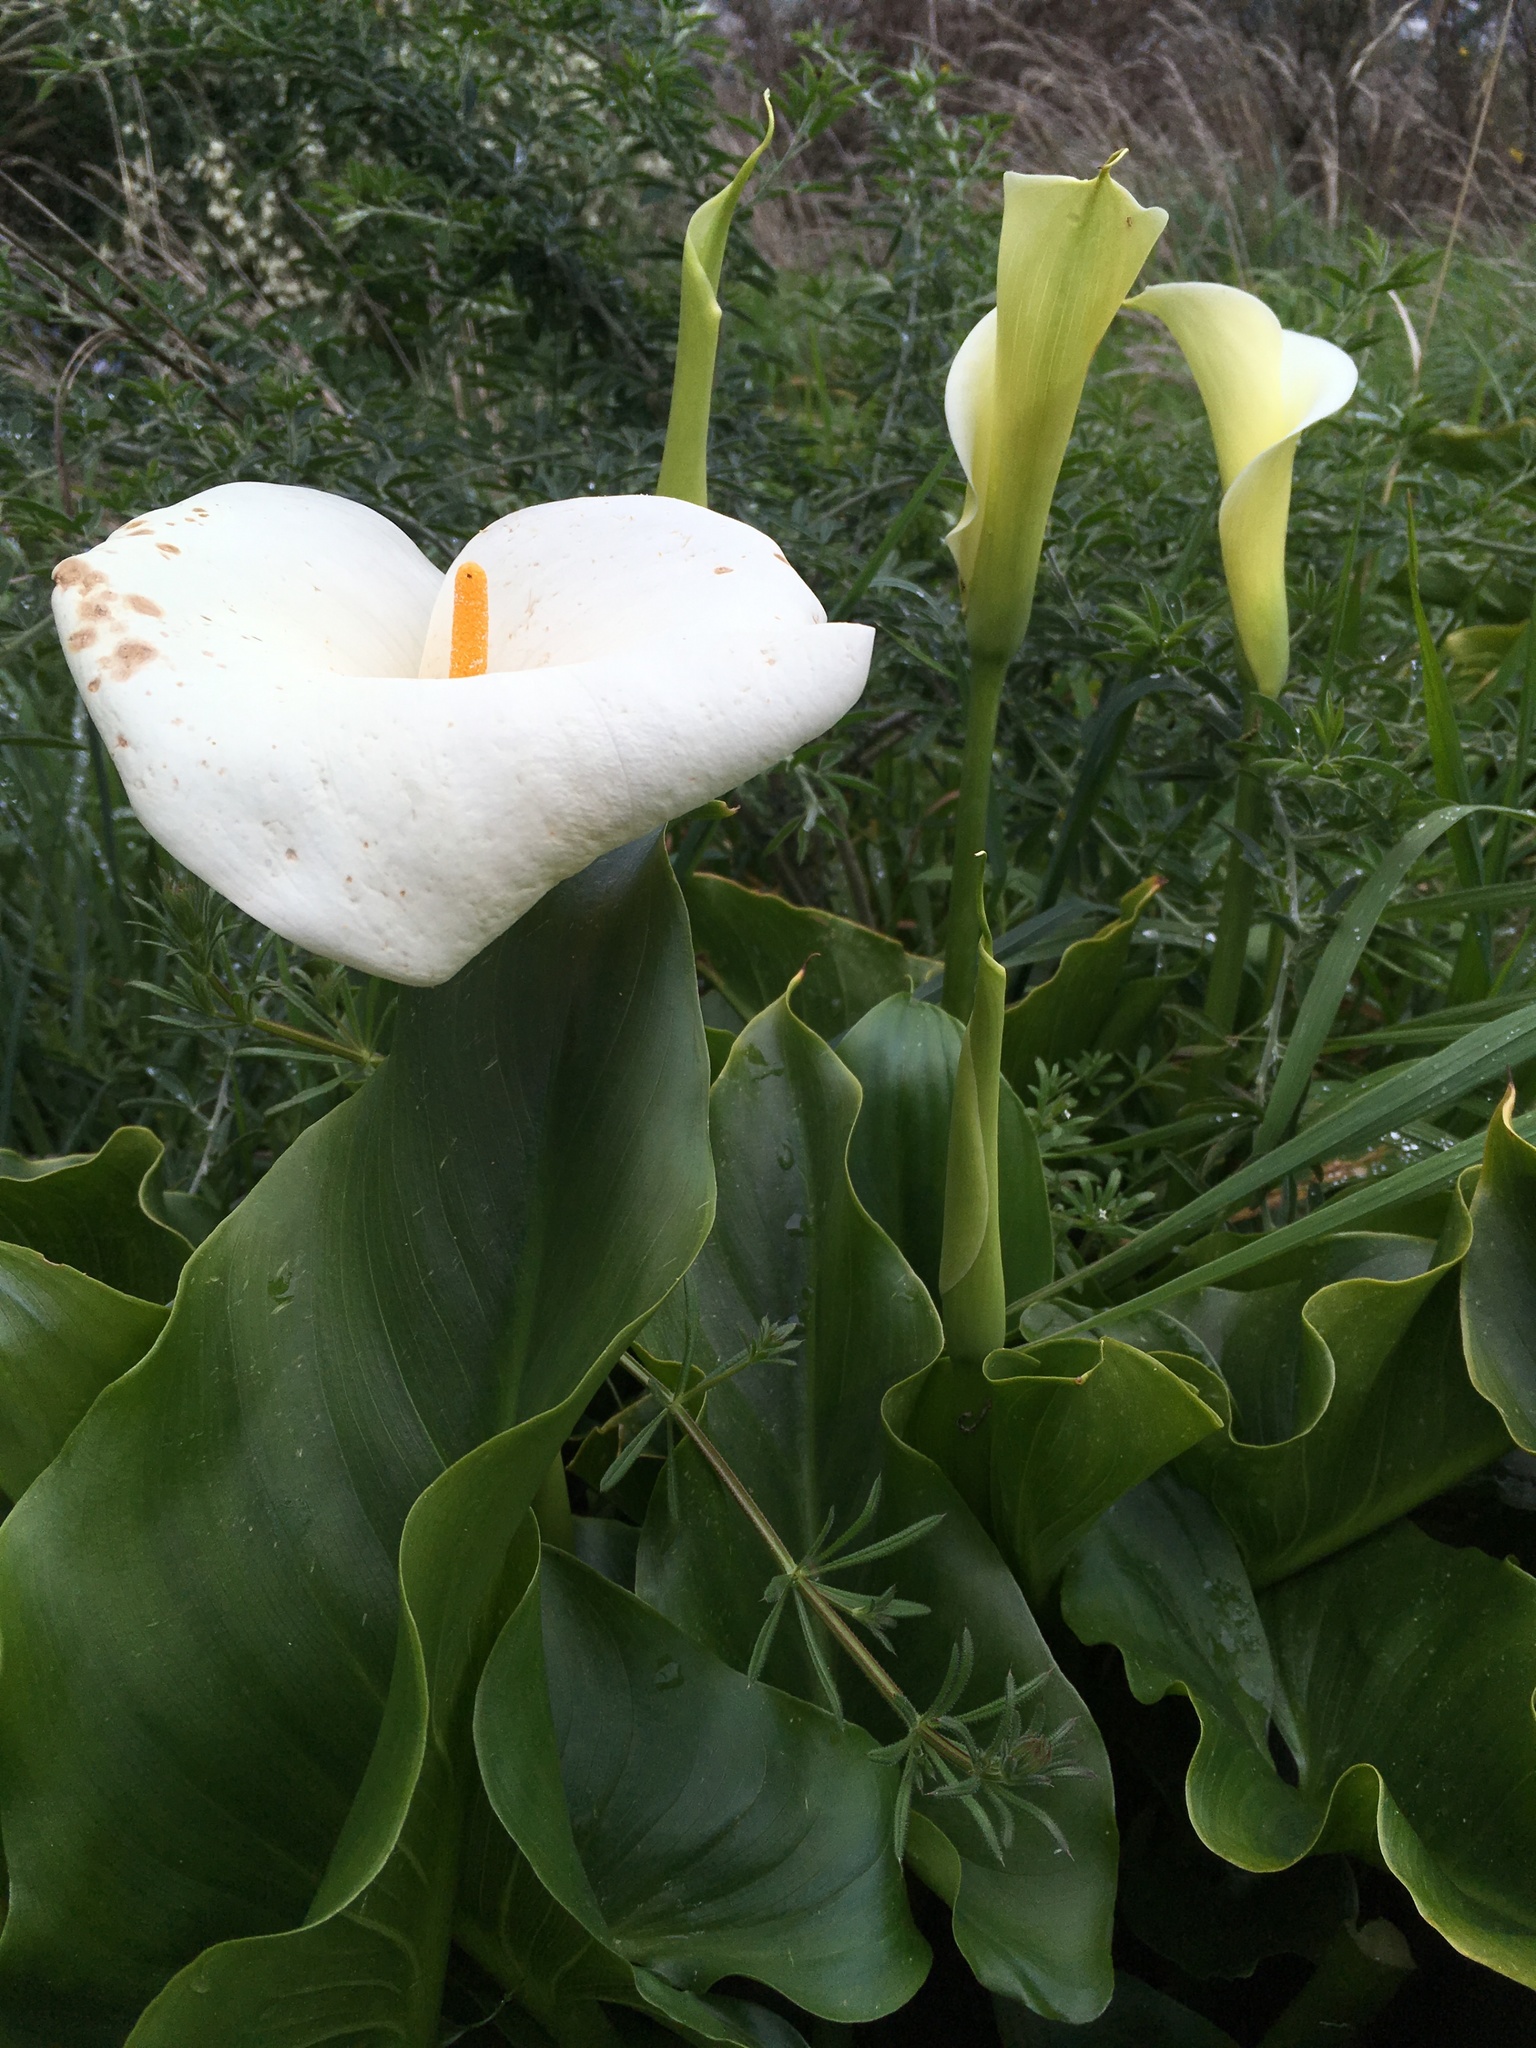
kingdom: Plantae
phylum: Tracheophyta
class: Liliopsida
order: Alismatales
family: Araceae
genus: Zantedeschia
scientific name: Zantedeschia aethiopica
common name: Altar-lily
